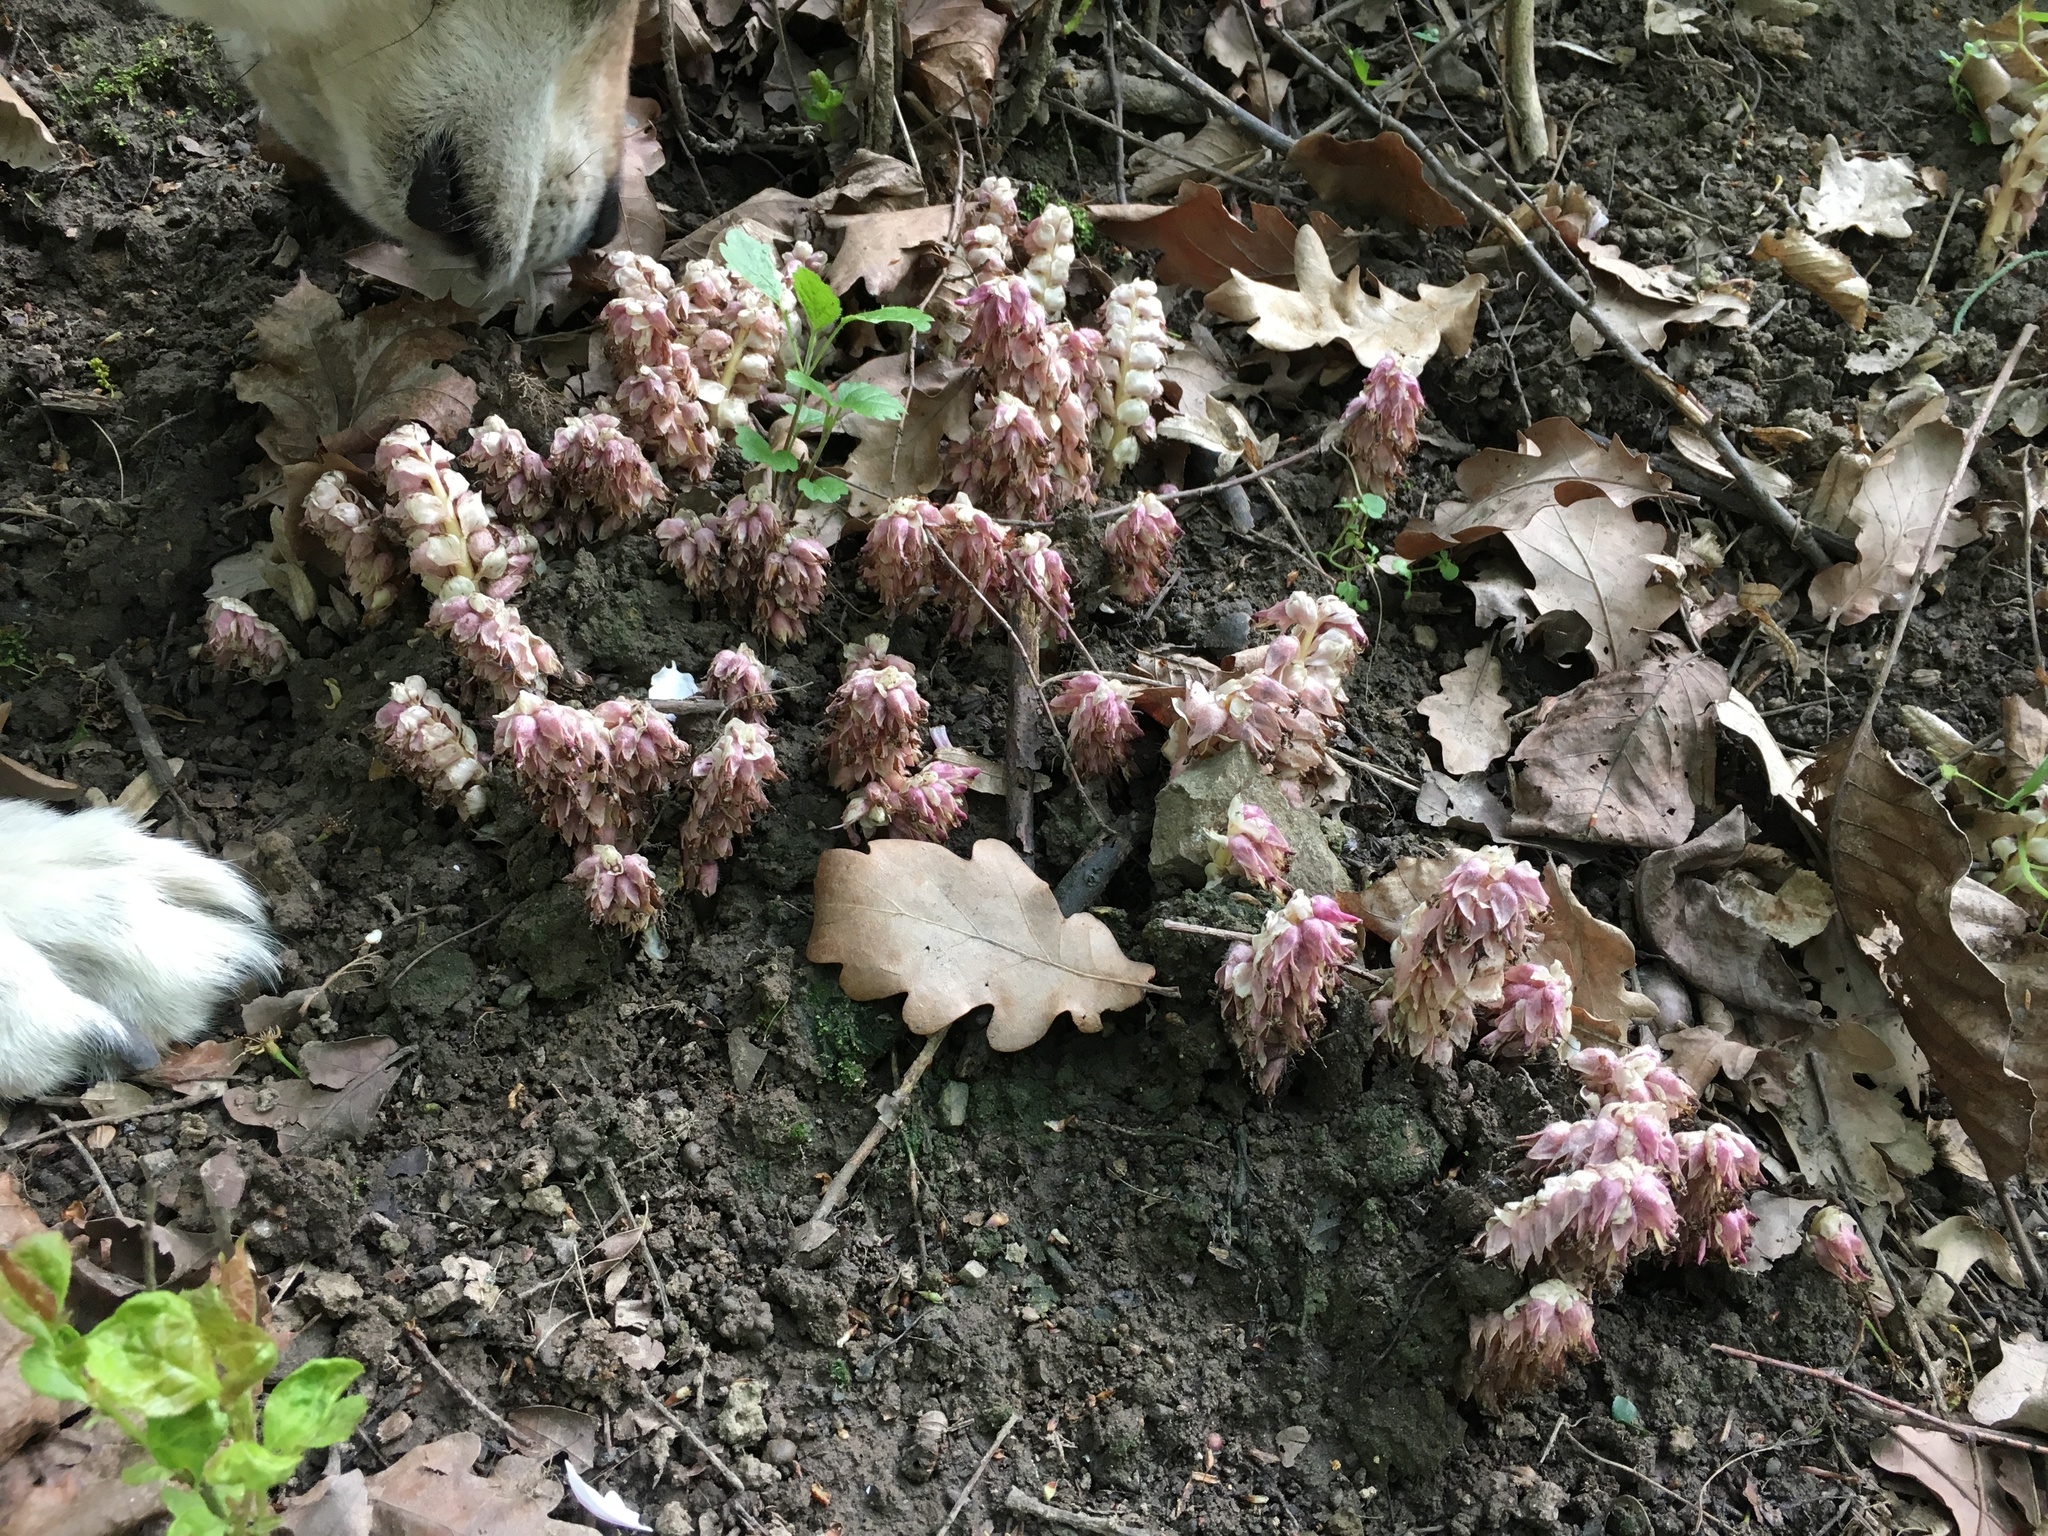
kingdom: Plantae
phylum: Tracheophyta
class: Magnoliopsida
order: Lamiales
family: Orobanchaceae
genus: Lathraea
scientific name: Lathraea squamaria
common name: Toothwort
